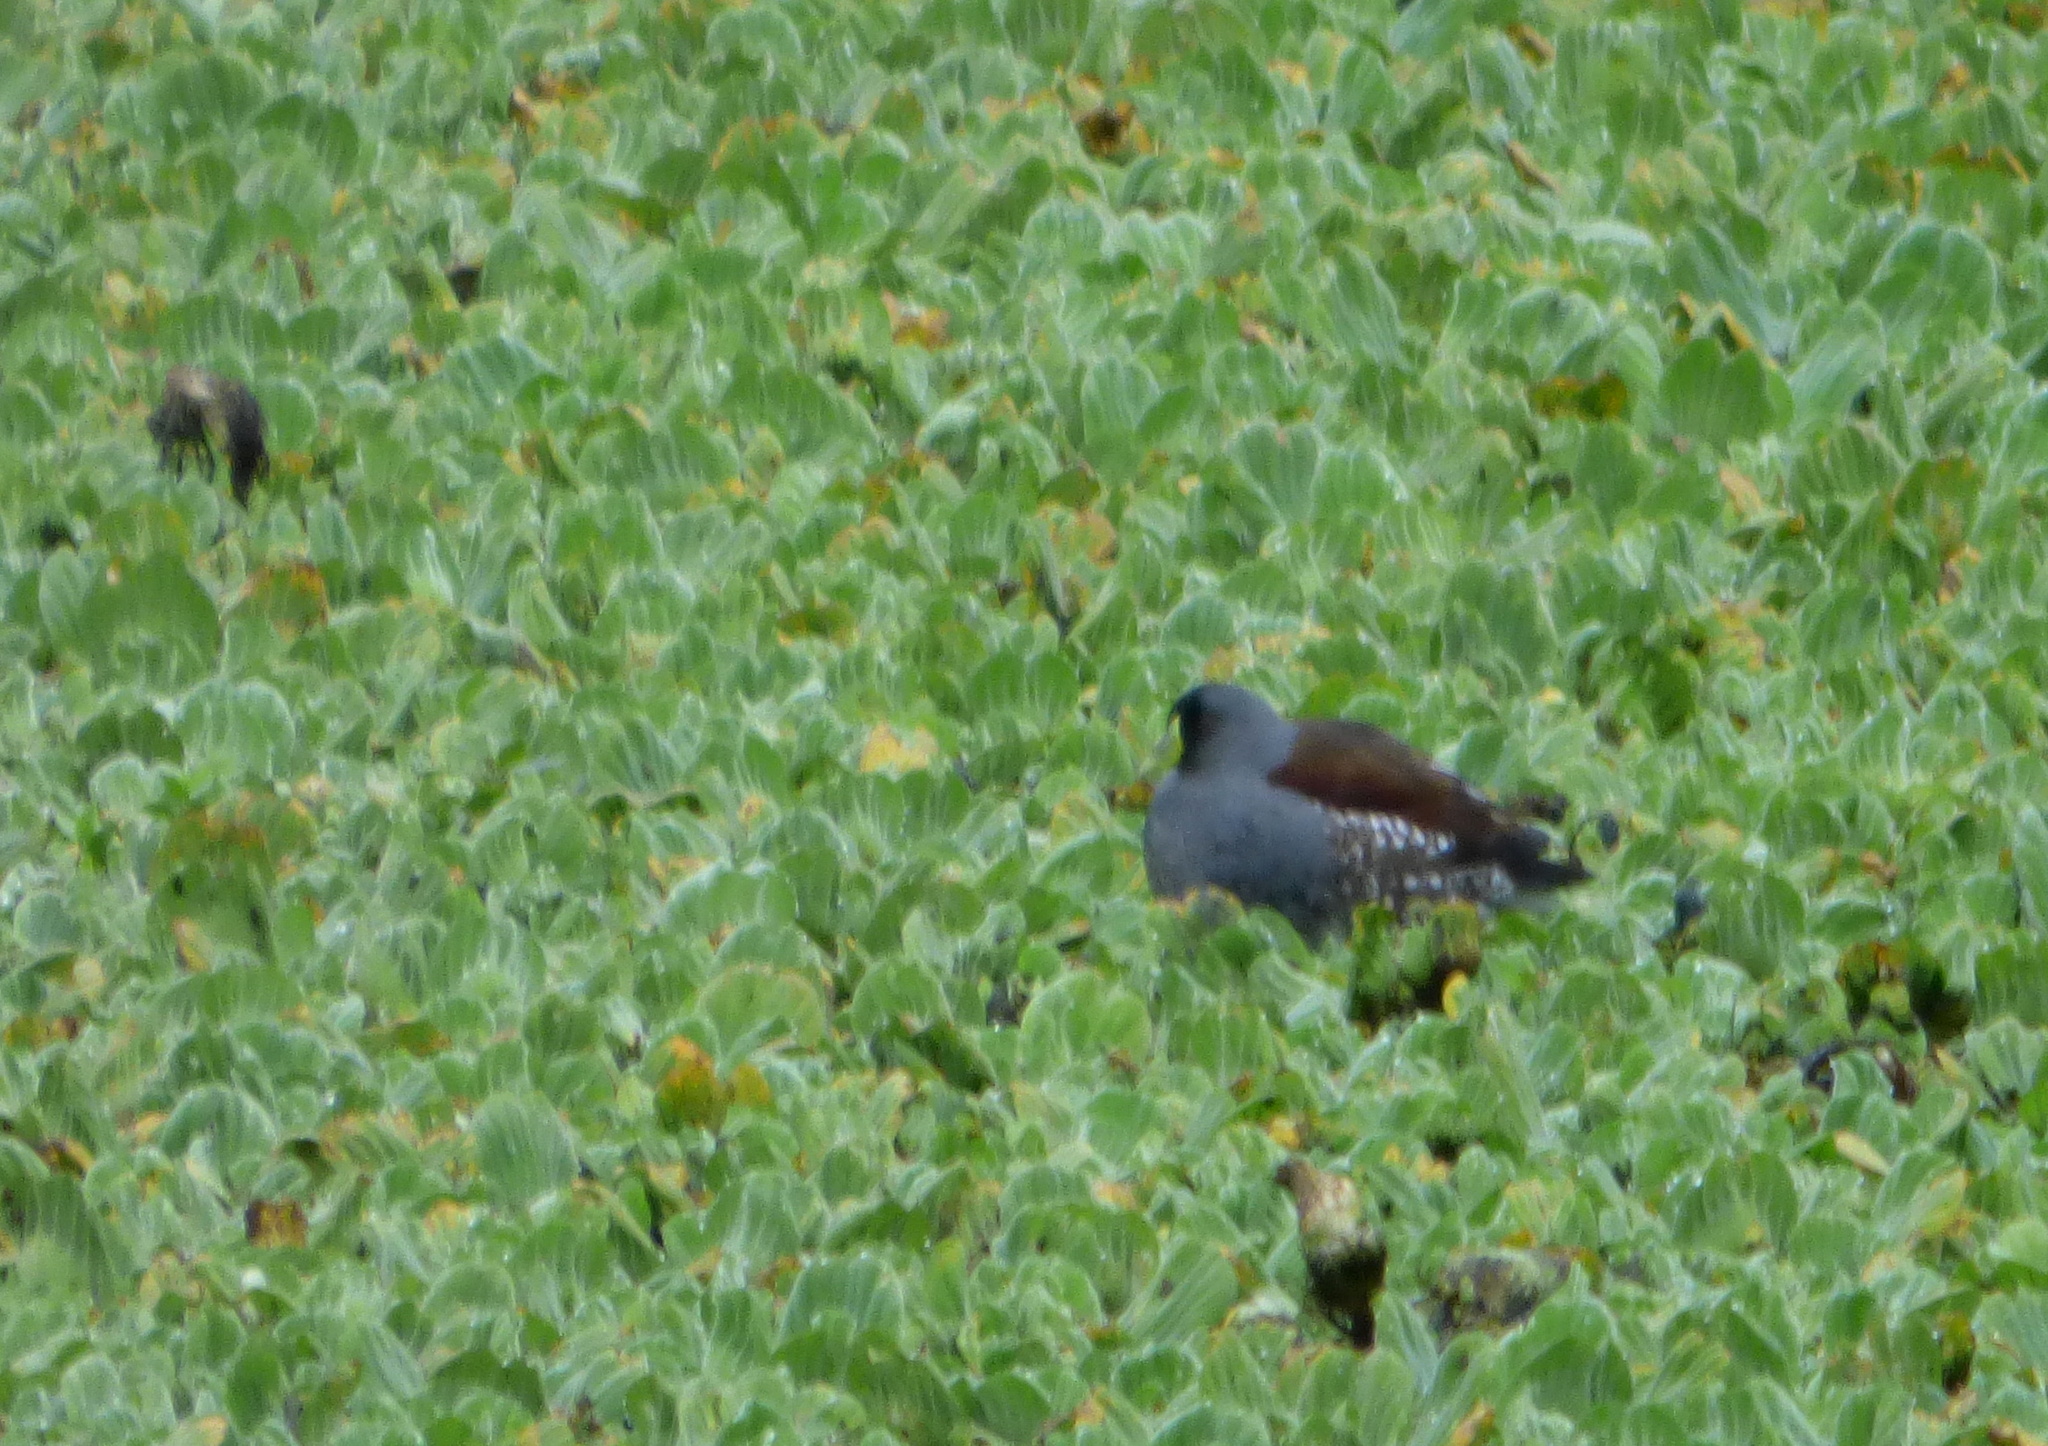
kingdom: Animalia
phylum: Chordata
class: Aves
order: Gruiformes
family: Rallidae
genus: Gallinula
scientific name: Gallinula melanops
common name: Spot-flanked gallinule
